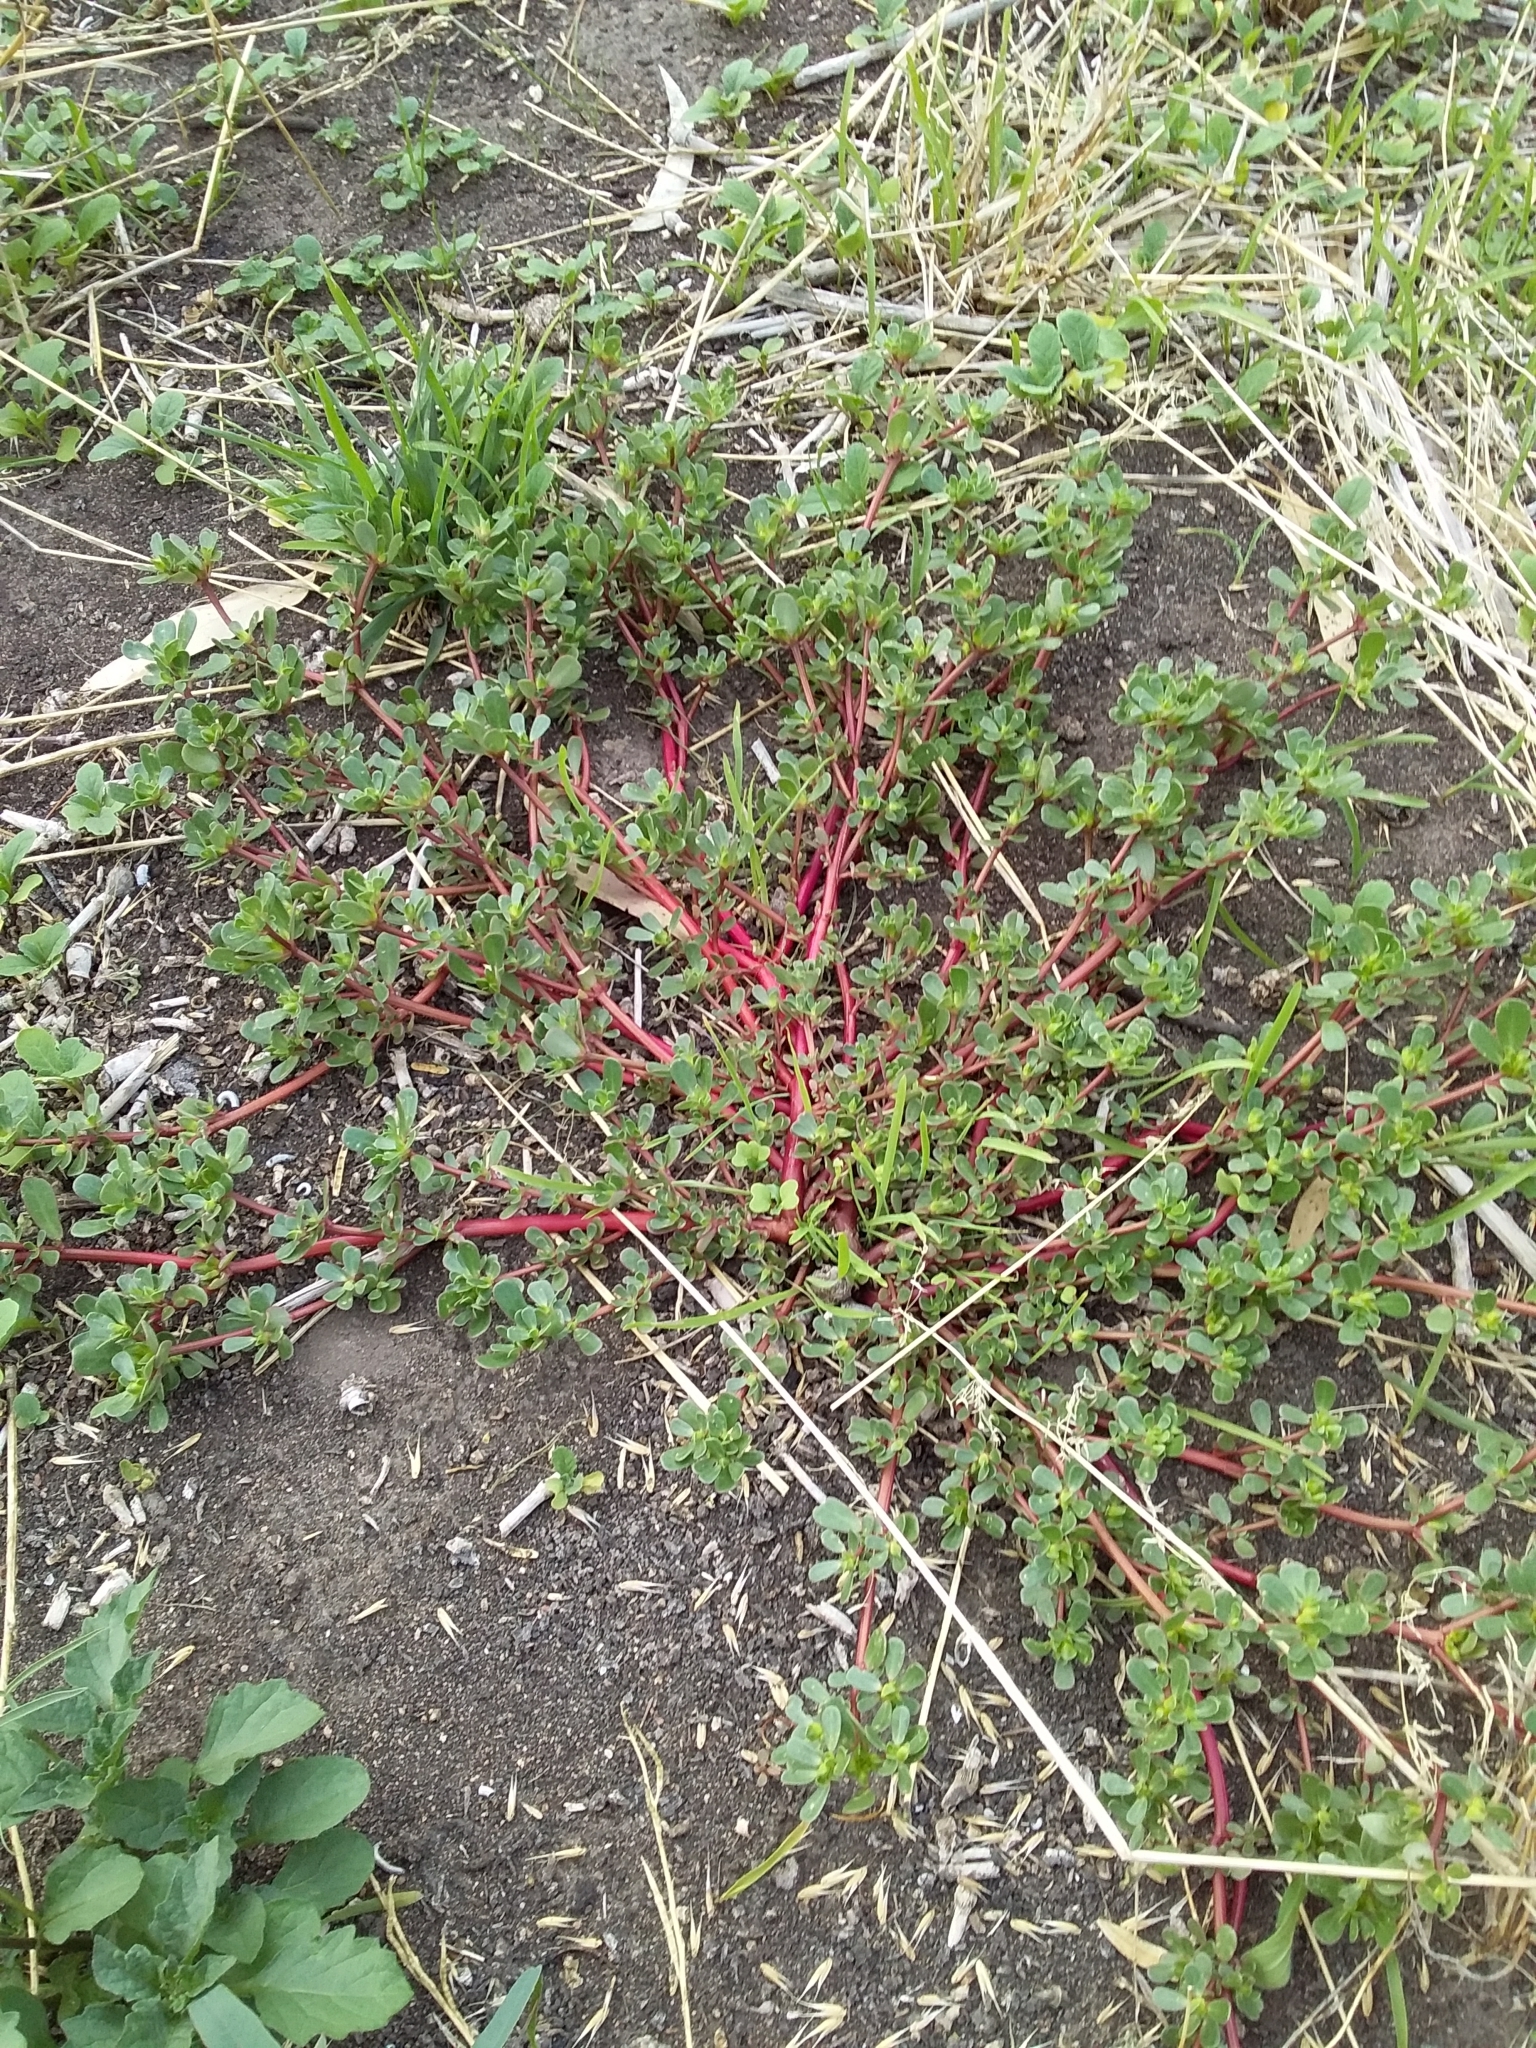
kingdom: Plantae
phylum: Tracheophyta
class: Magnoliopsida
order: Caryophyllales
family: Portulacaceae
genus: Portulaca
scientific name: Portulaca oleracea
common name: Common purslane
